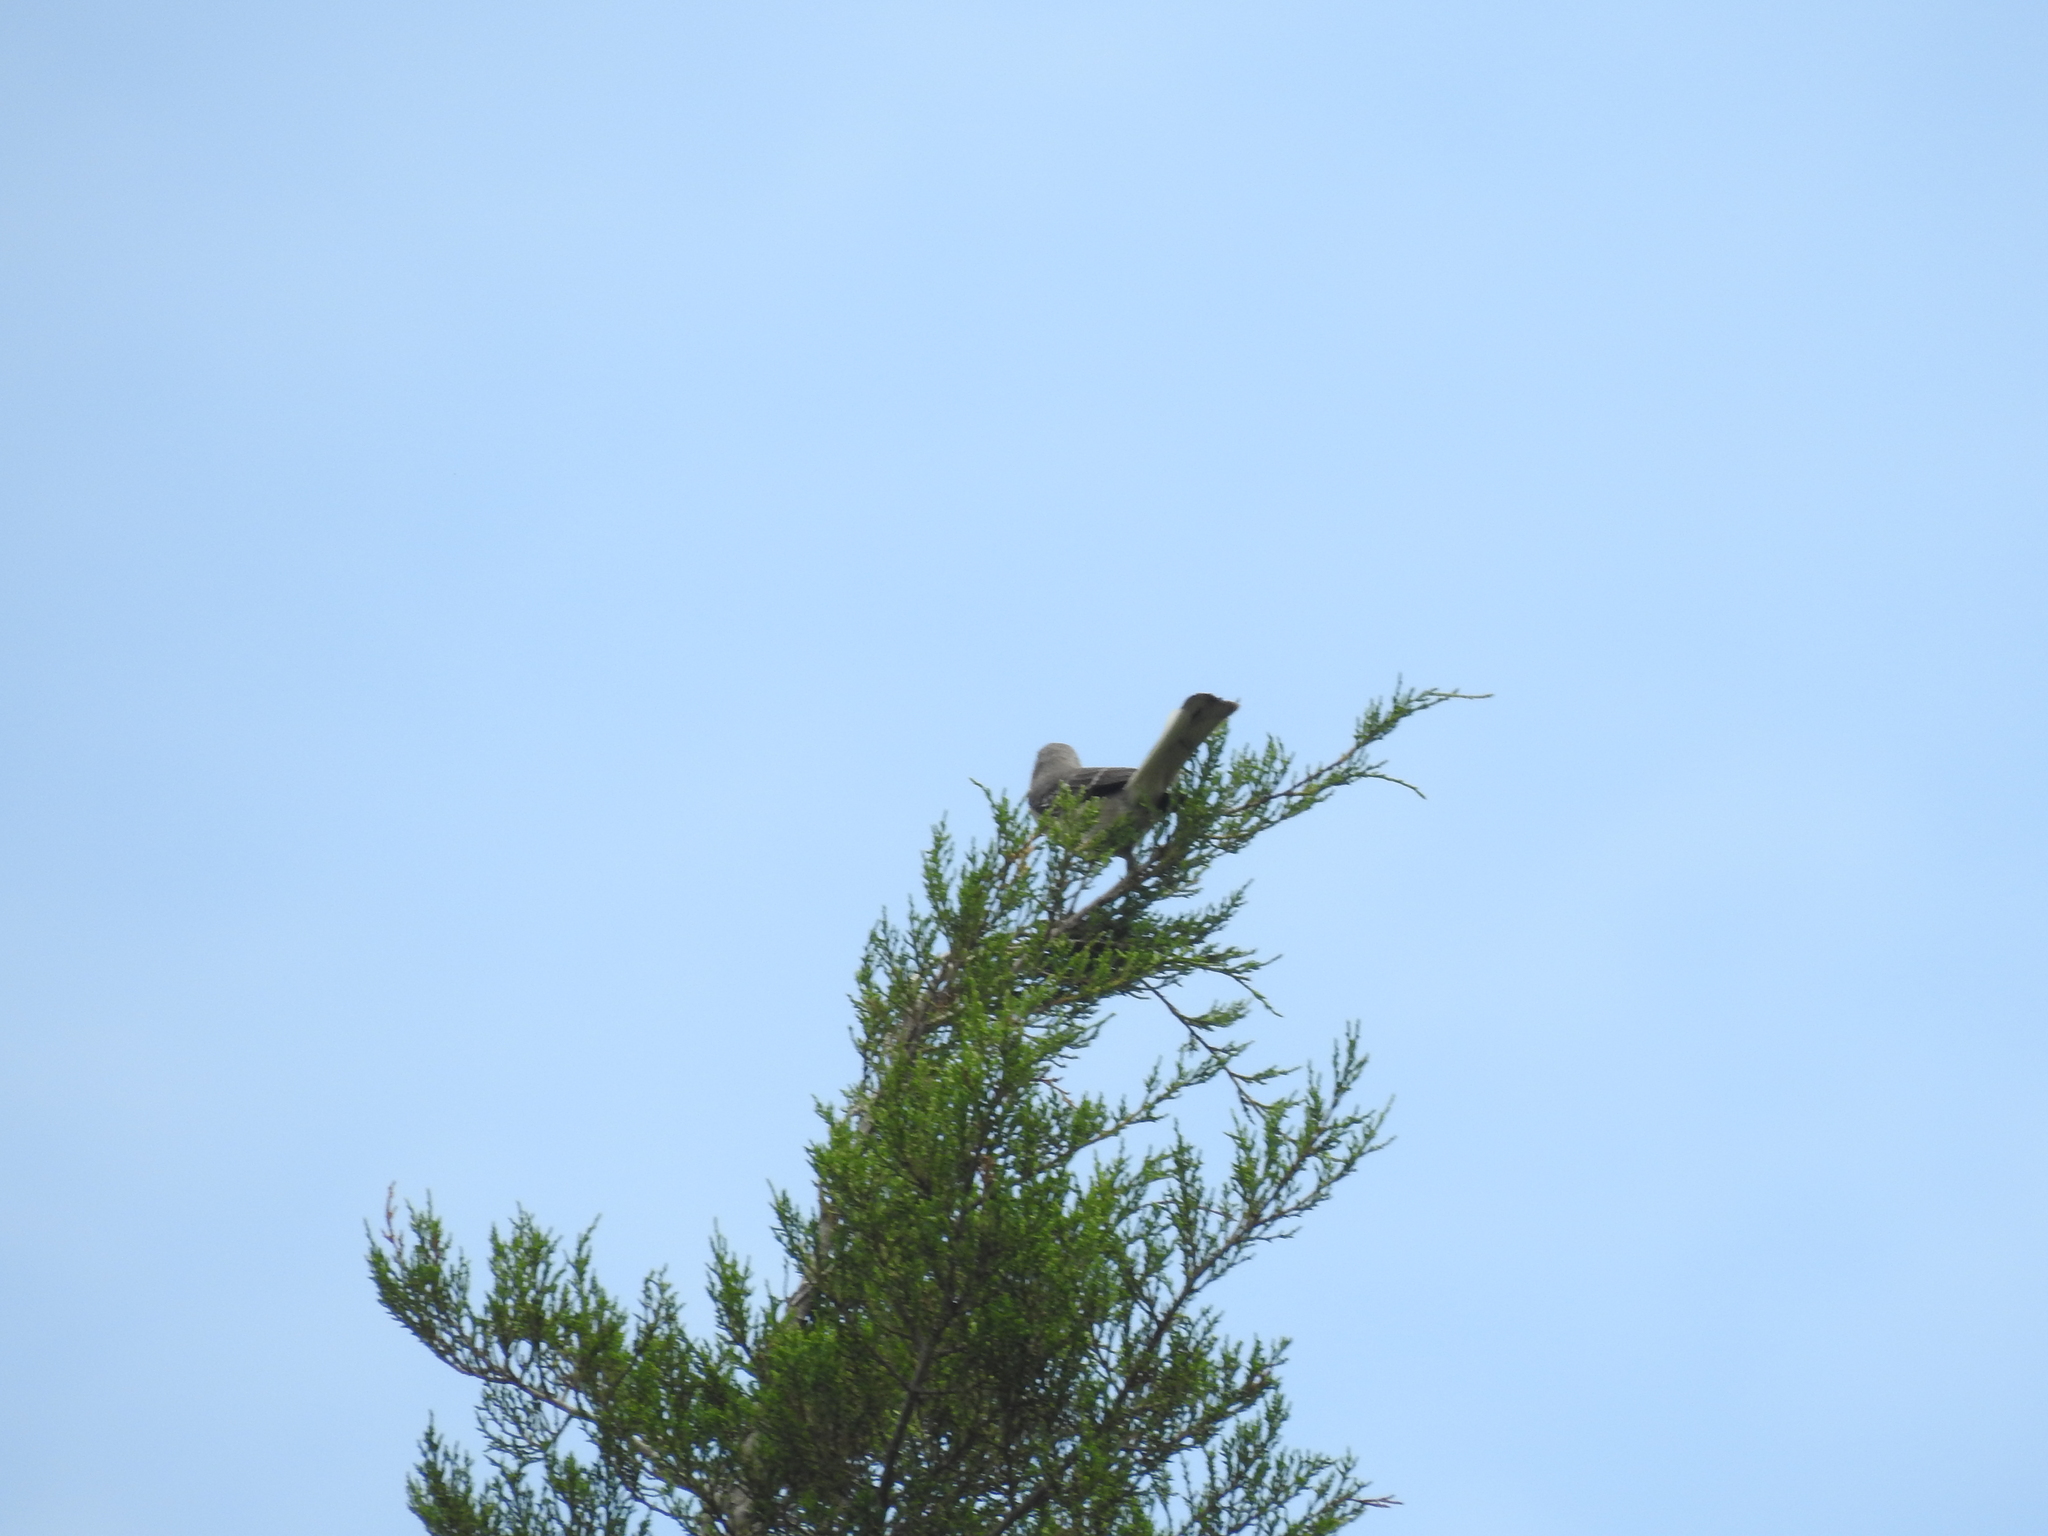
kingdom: Animalia
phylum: Chordata
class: Aves
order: Passeriformes
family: Mimidae
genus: Mimus
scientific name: Mimus polyglottos
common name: Northern mockingbird
